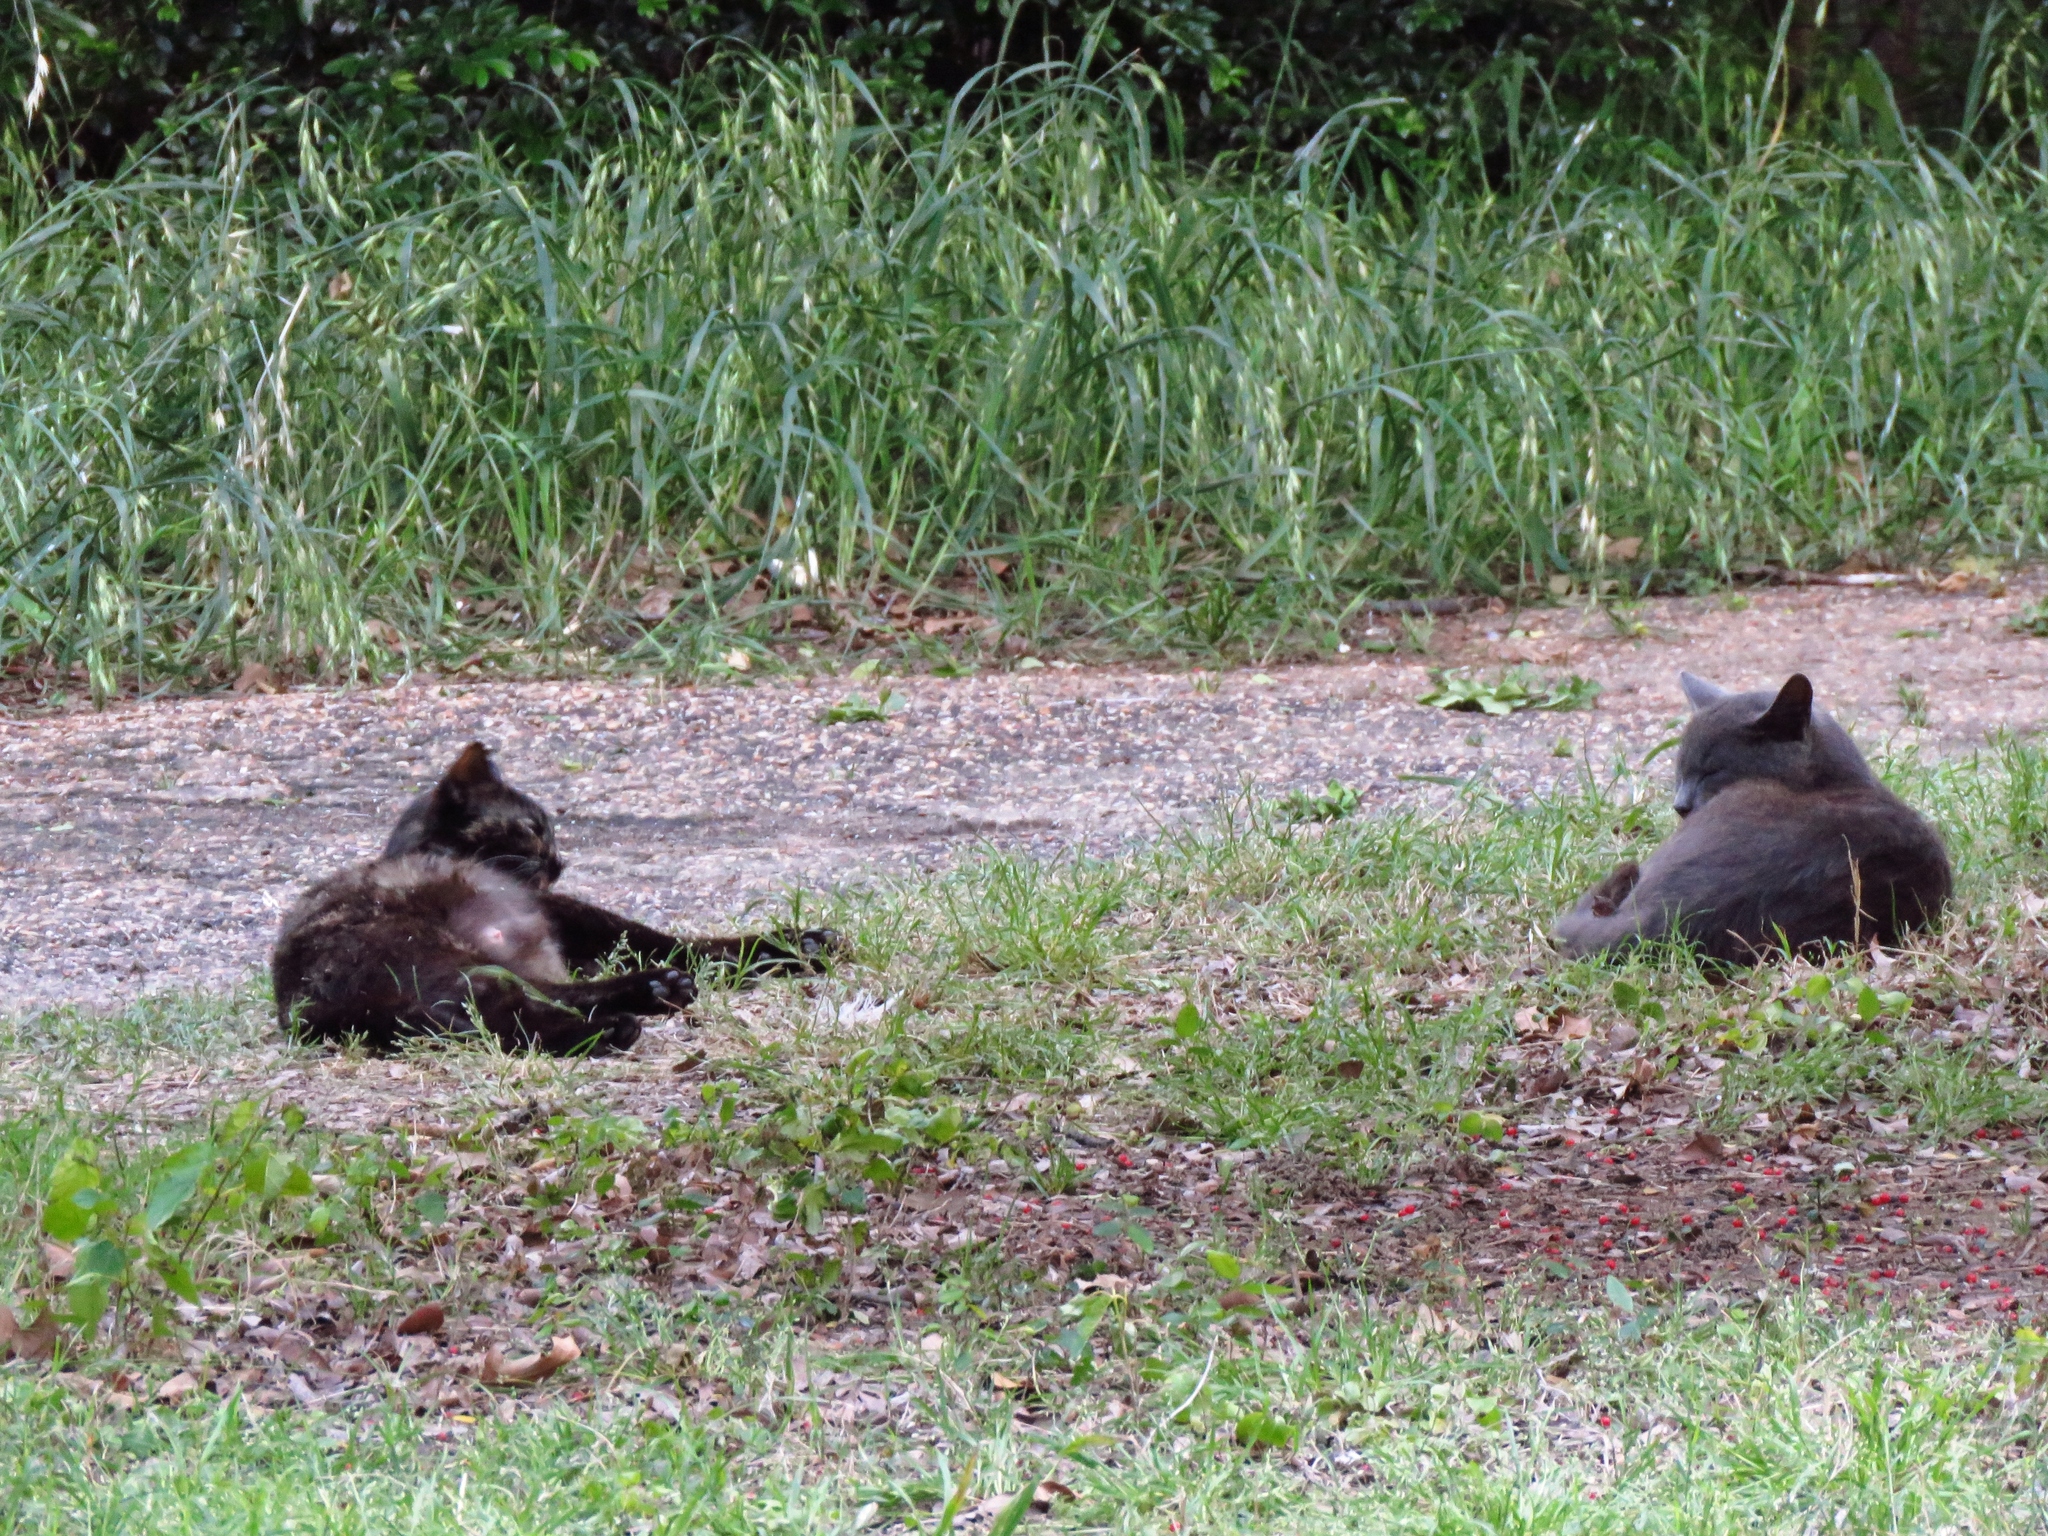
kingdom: Animalia
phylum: Chordata
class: Mammalia
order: Carnivora
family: Felidae
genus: Felis
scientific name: Felis catus
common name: Domestic cat
